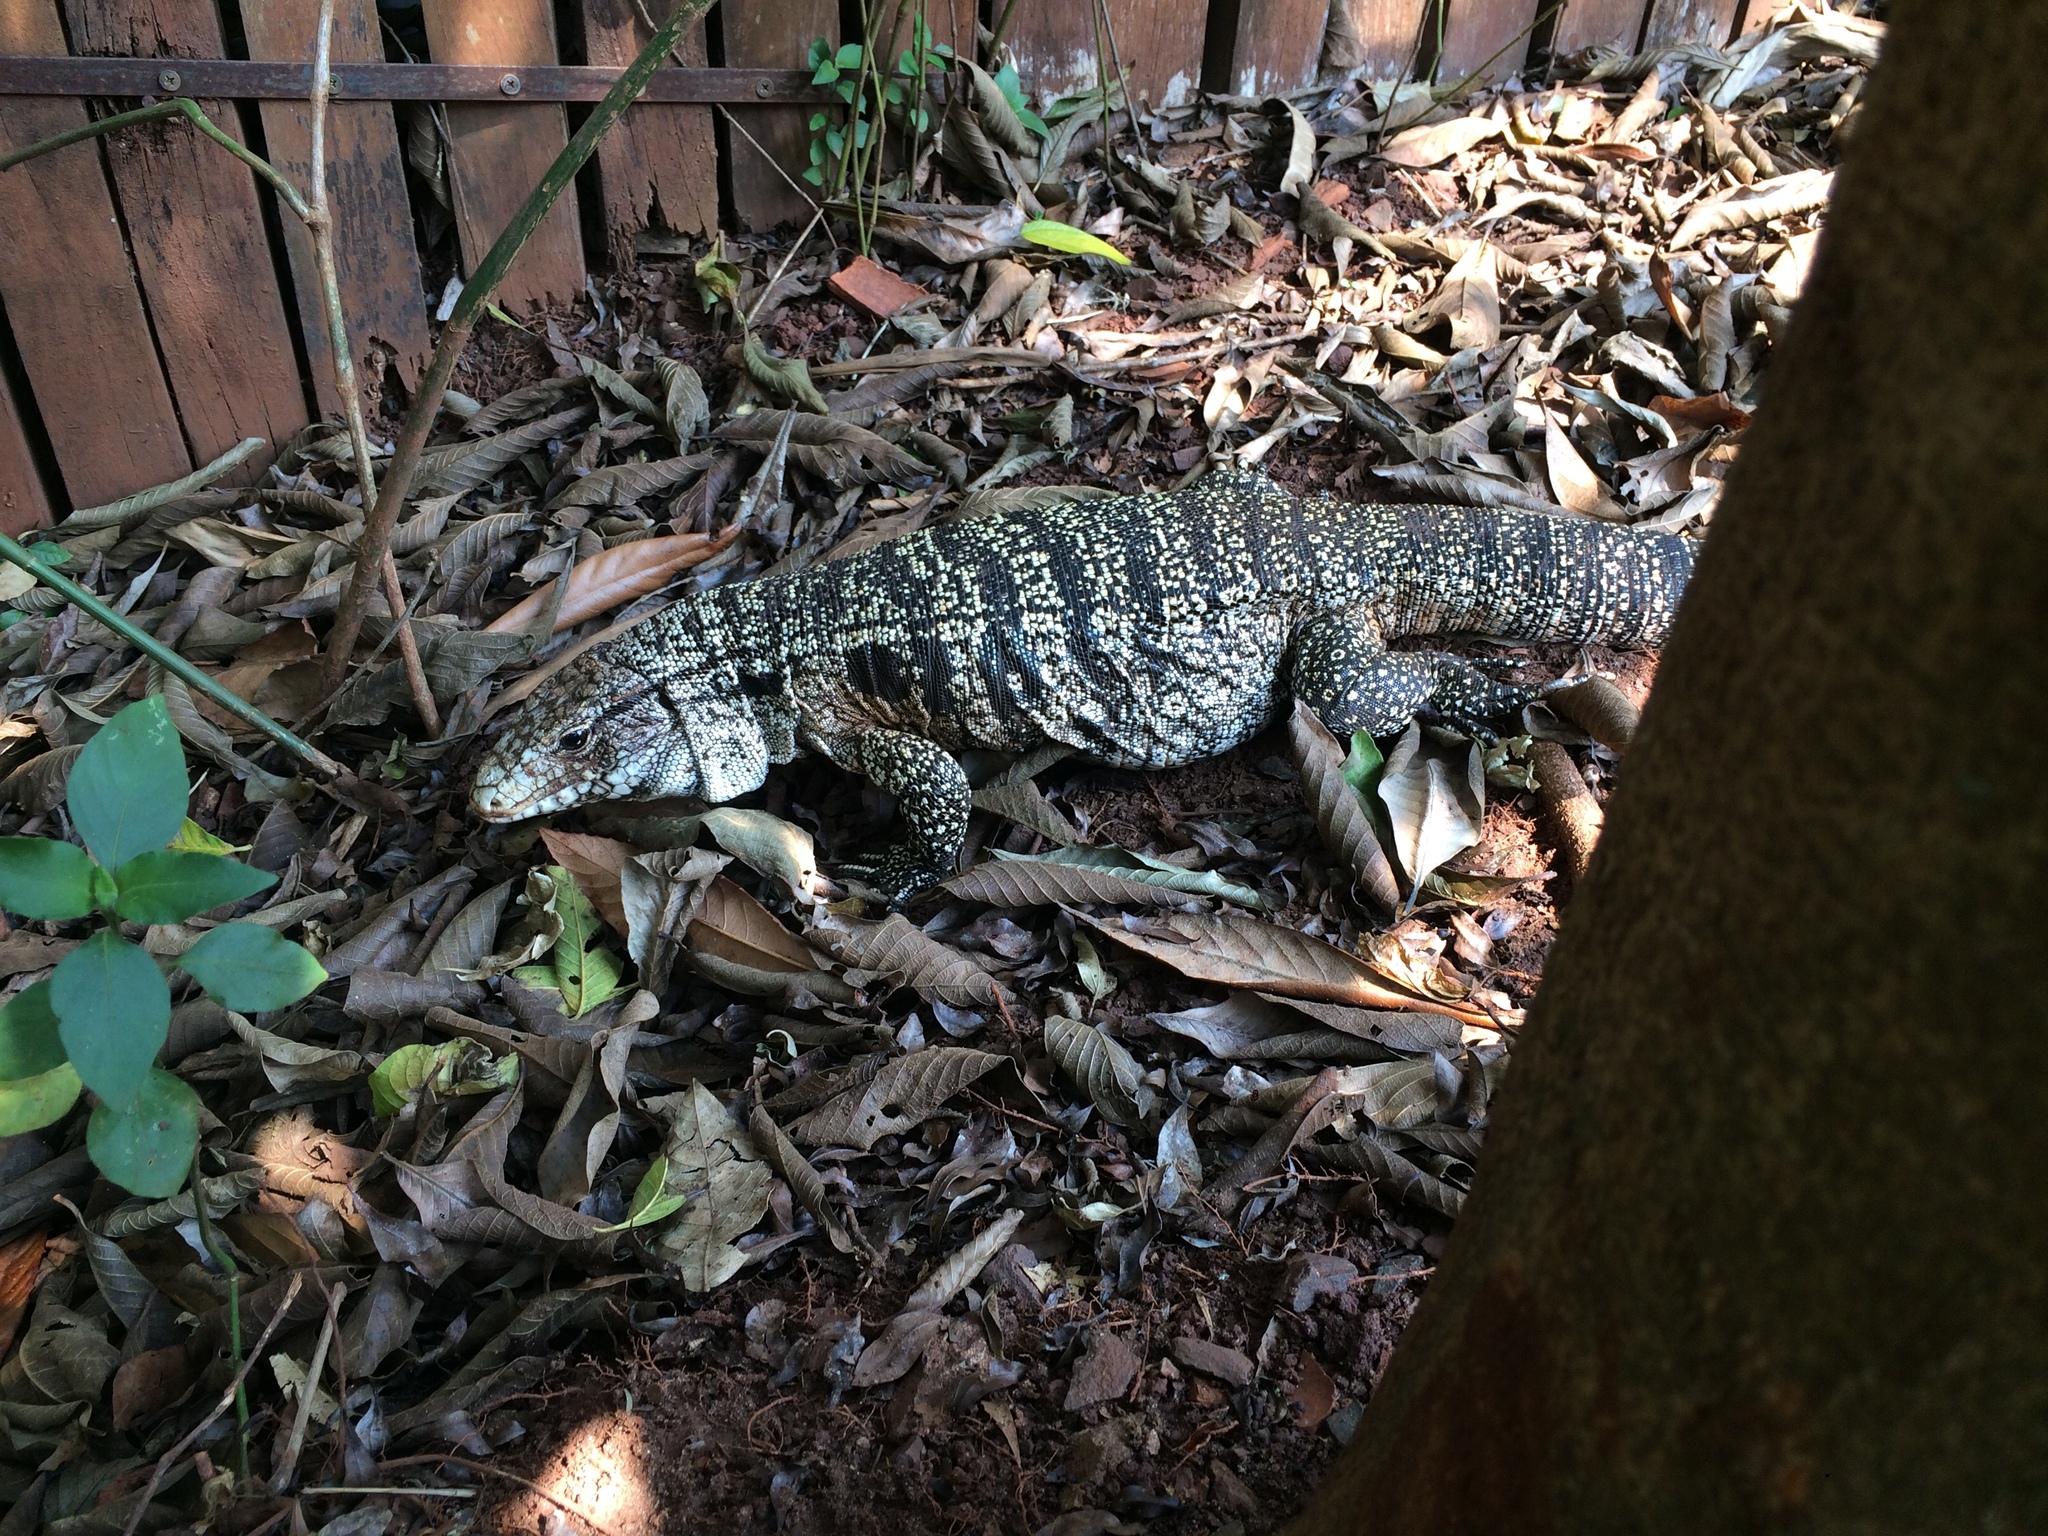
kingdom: Animalia
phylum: Chordata
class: Squamata
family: Teiidae
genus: Salvator
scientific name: Salvator merianae
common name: Argentine black and white tegu
